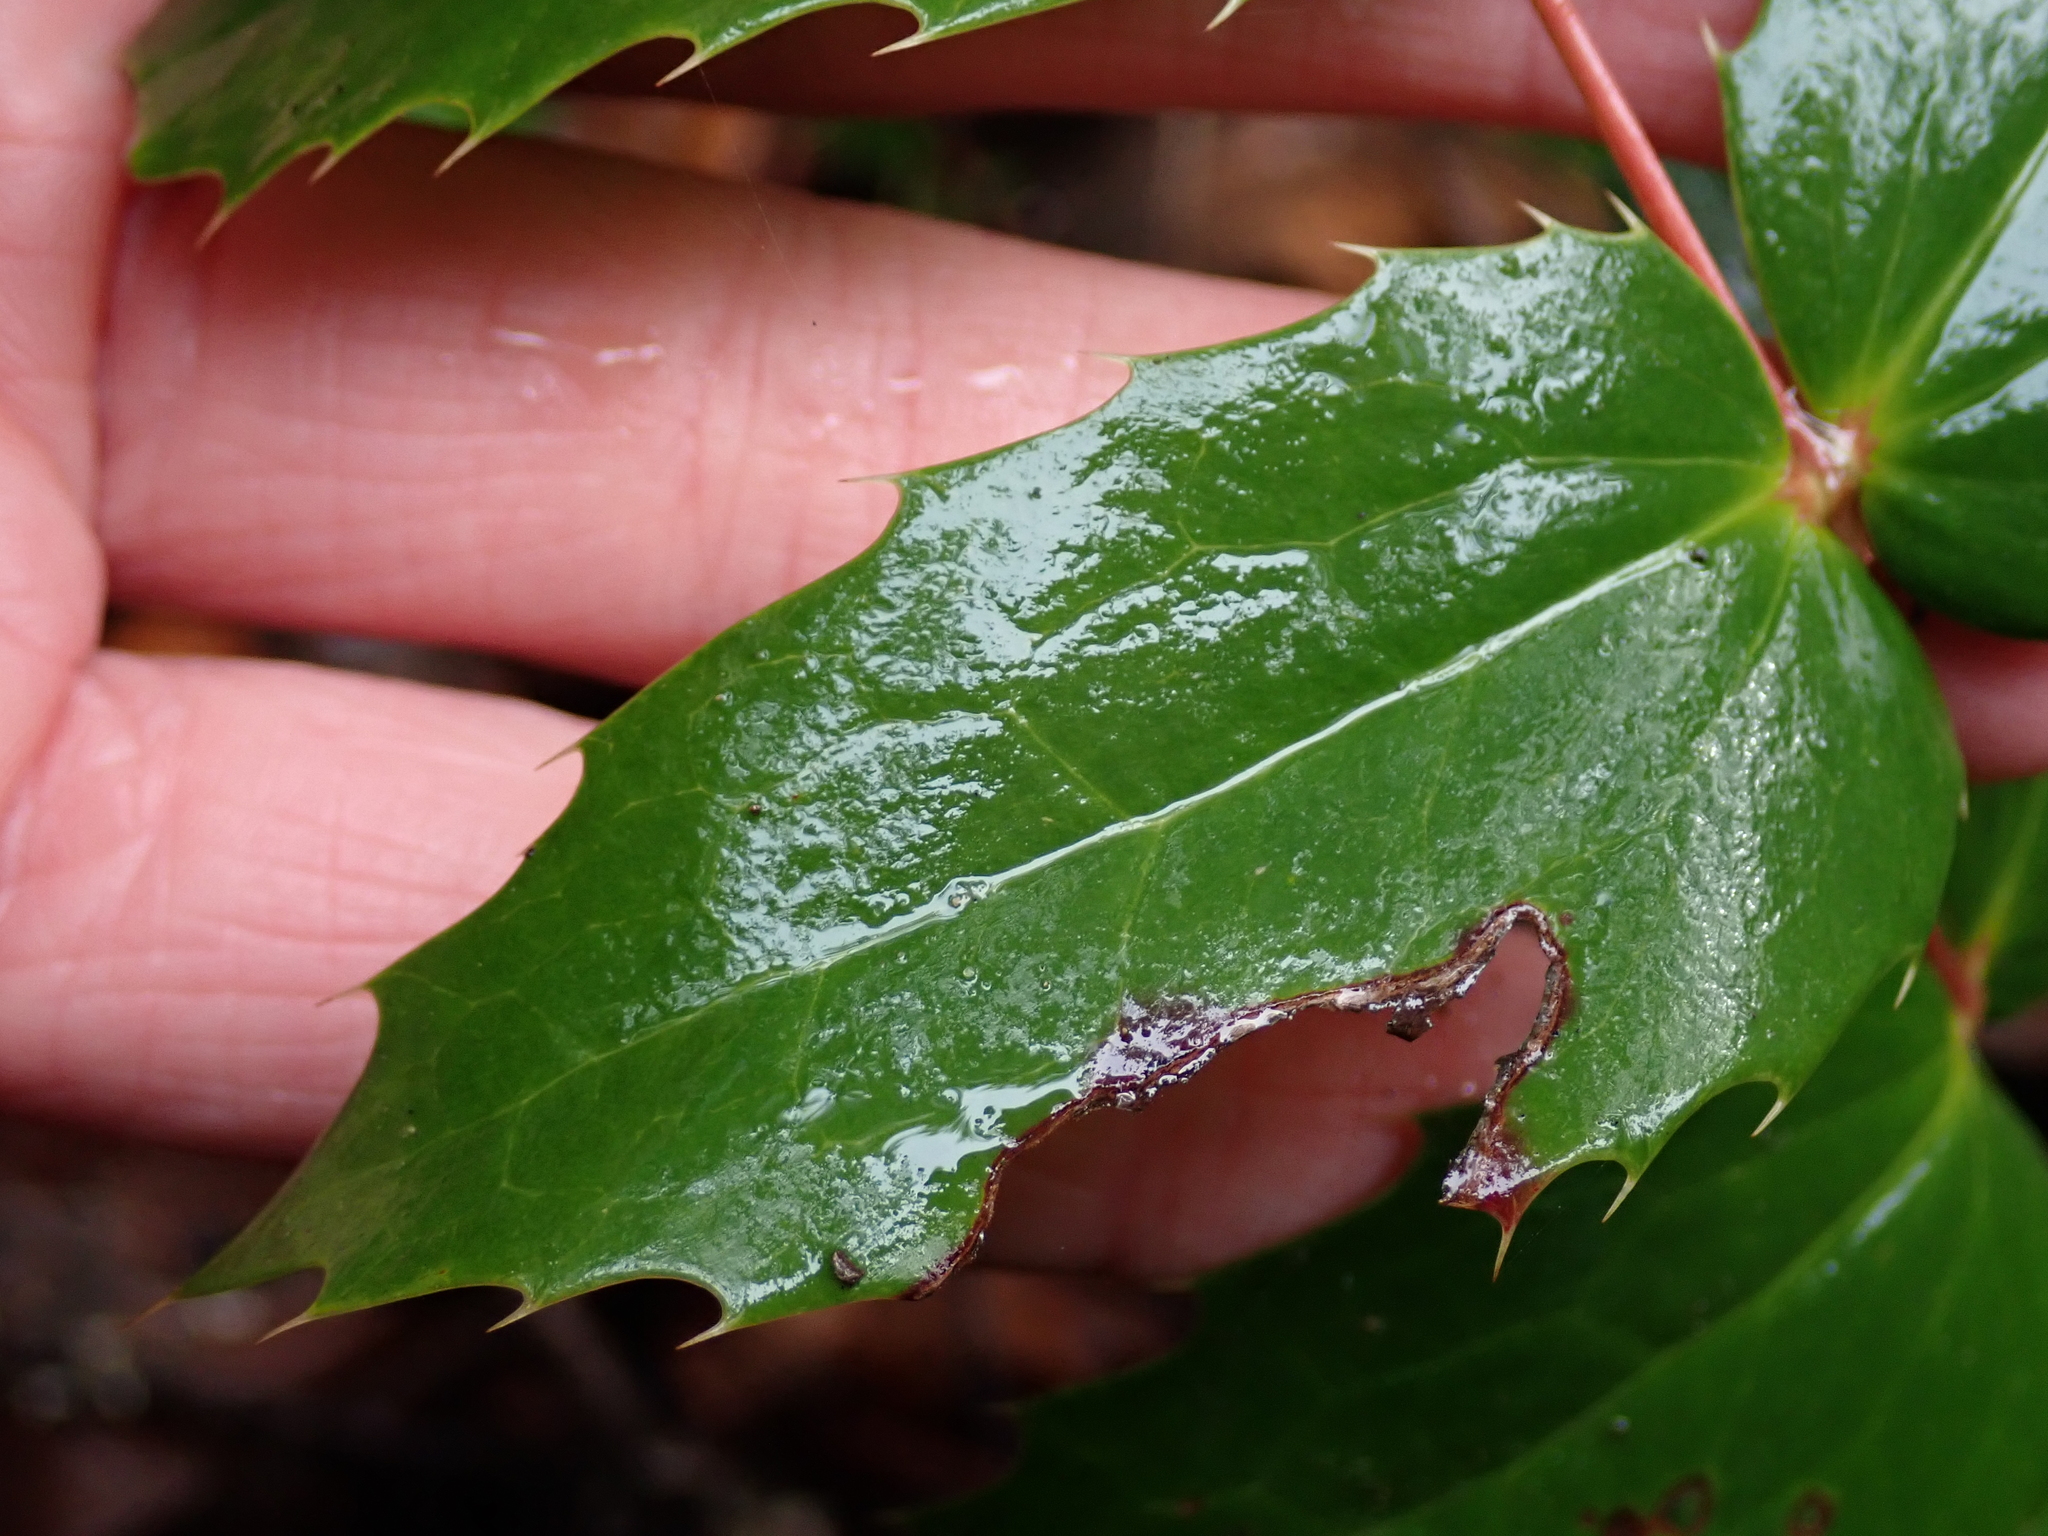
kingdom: Plantae
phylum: Tracheophyta
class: Magnoliopsida
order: Ranunculales
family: Berberidaceae
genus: Mahonia
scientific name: Mahonia nervosa
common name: Cascade oregon-grape
